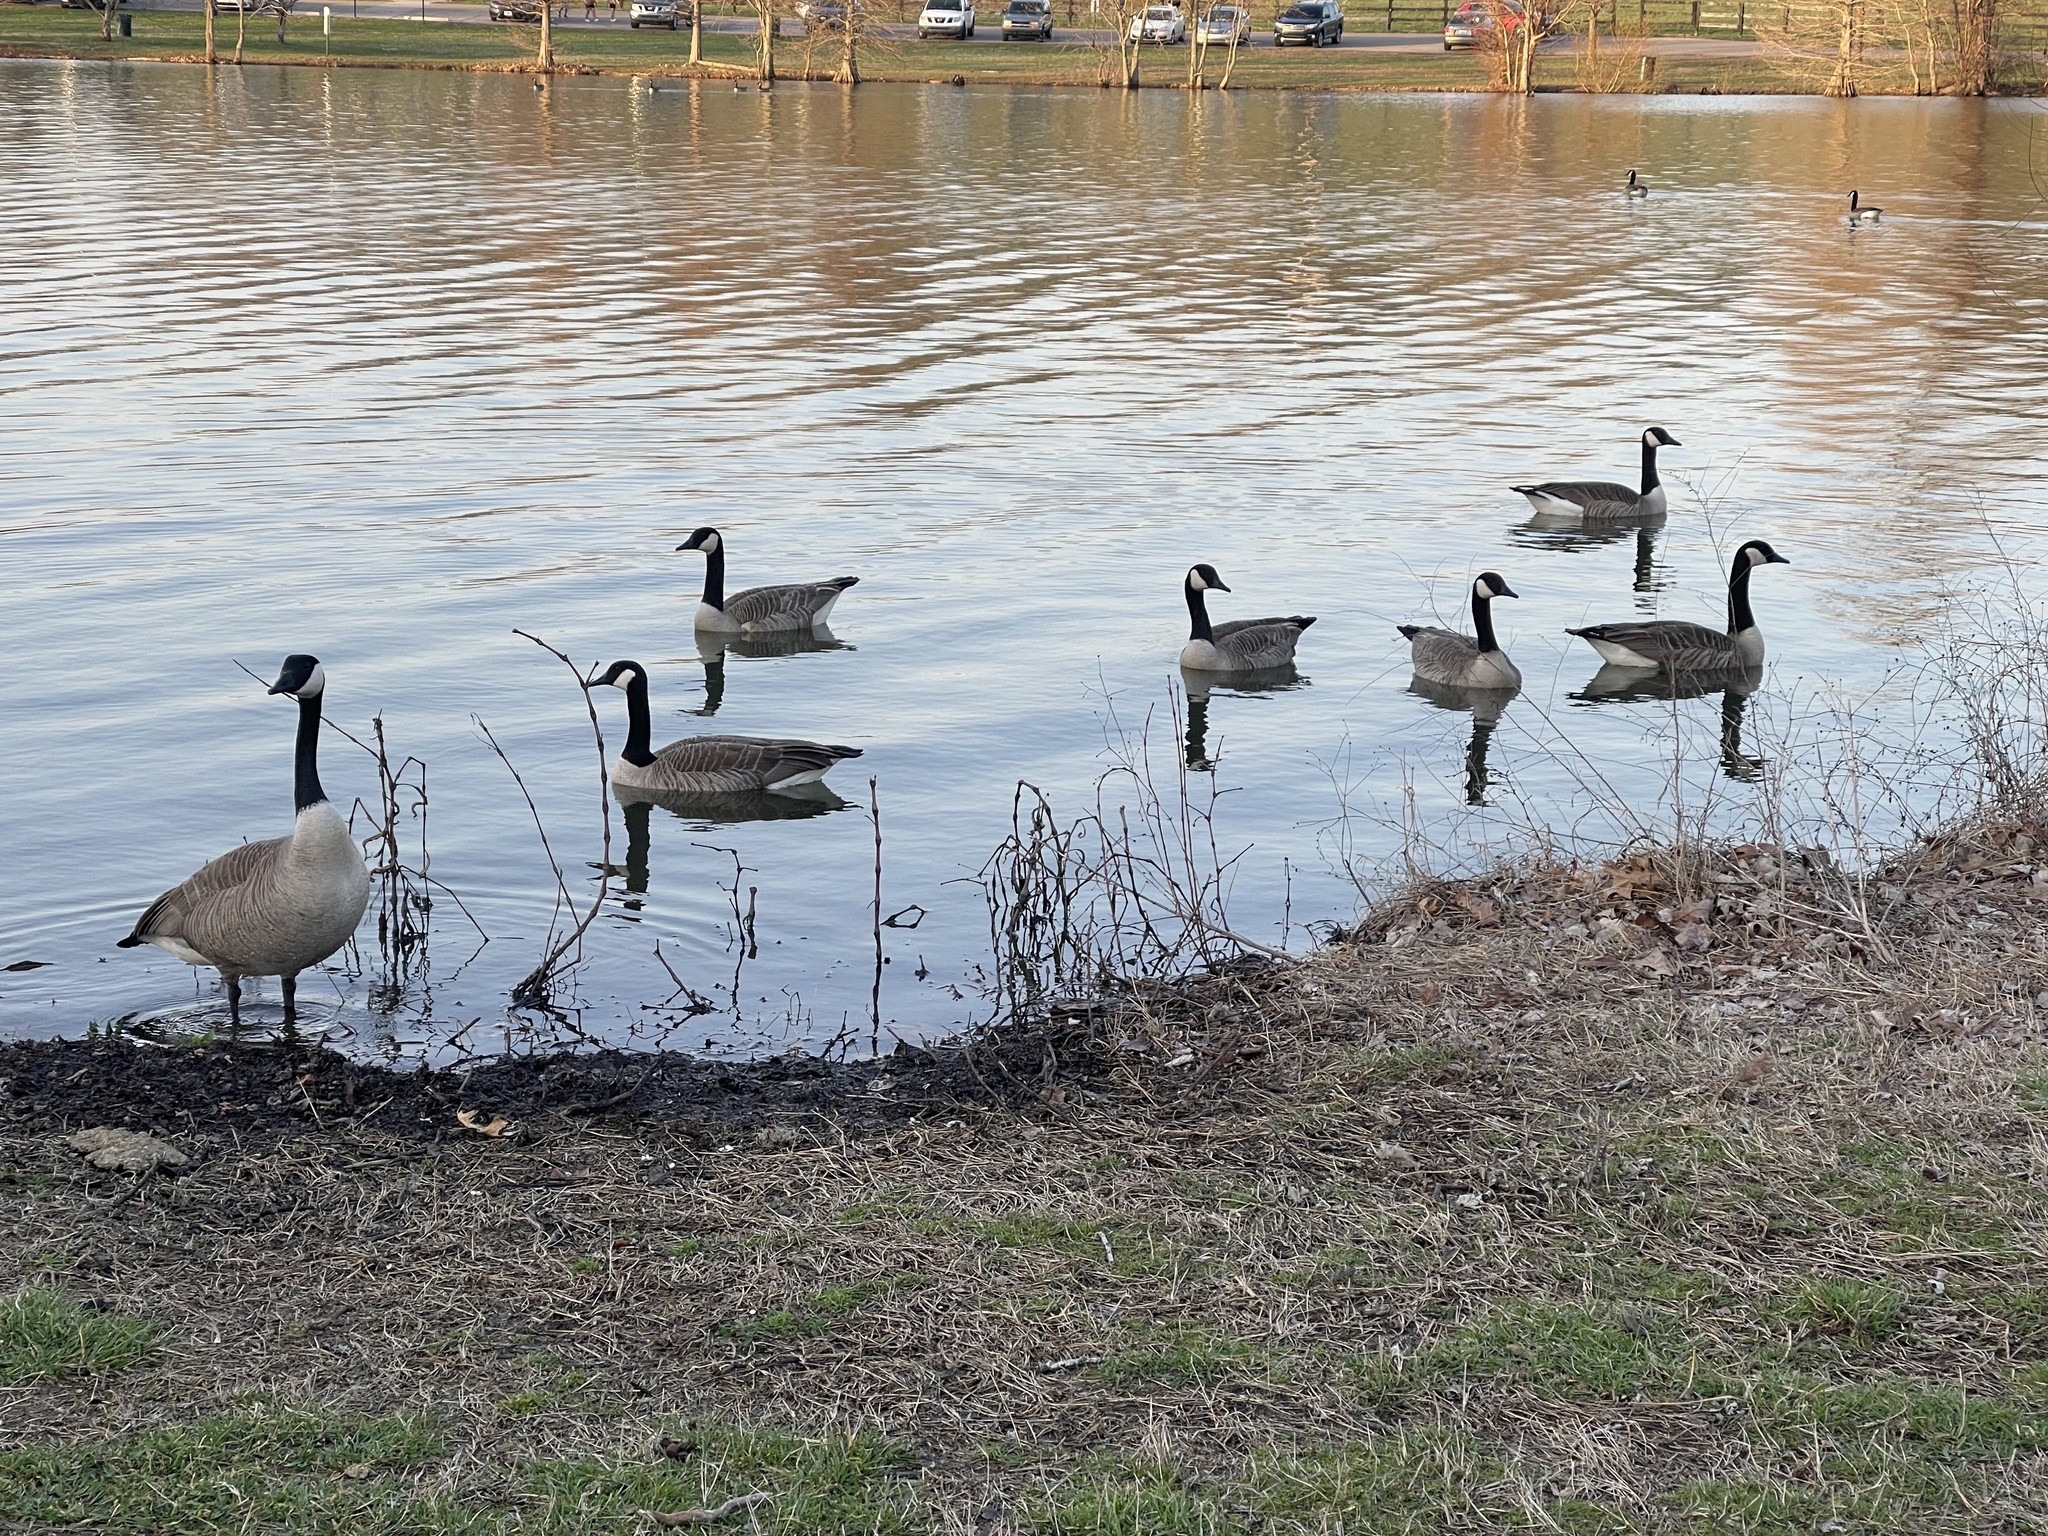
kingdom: Animalia
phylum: Chordata
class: Aves
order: Anseriformes
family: Anatidae
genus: Branta
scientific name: Branta canadensis
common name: Canada goose
